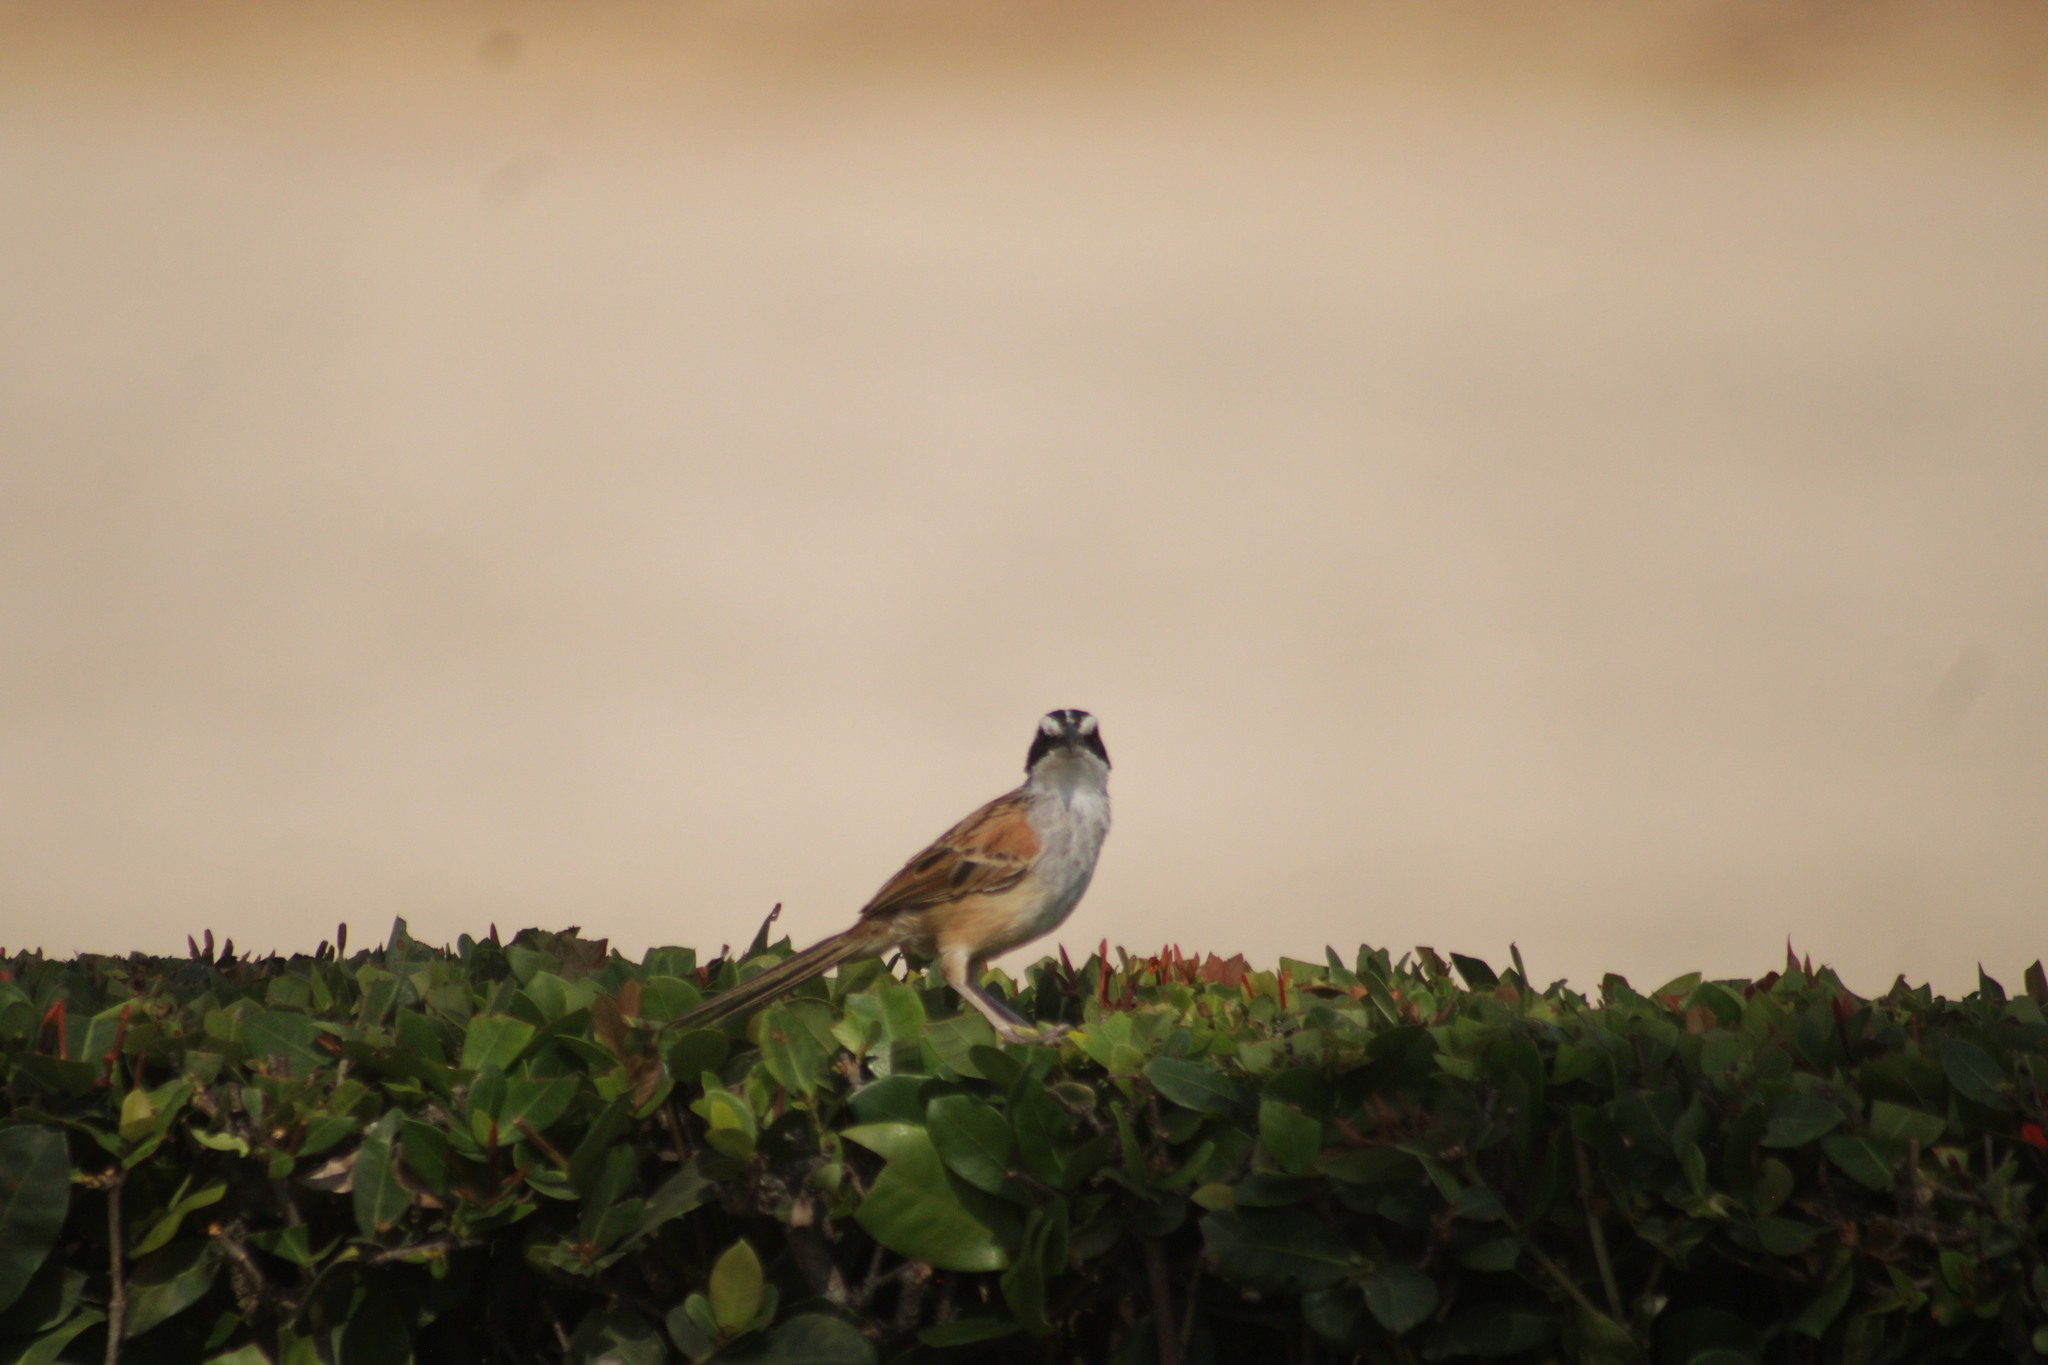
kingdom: Animalia
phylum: Chordata
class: Aves
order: Passeriformes
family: Passerellidae
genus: Peucaea
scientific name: Peucaea ruficauda
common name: Stripe-headed sparrow
